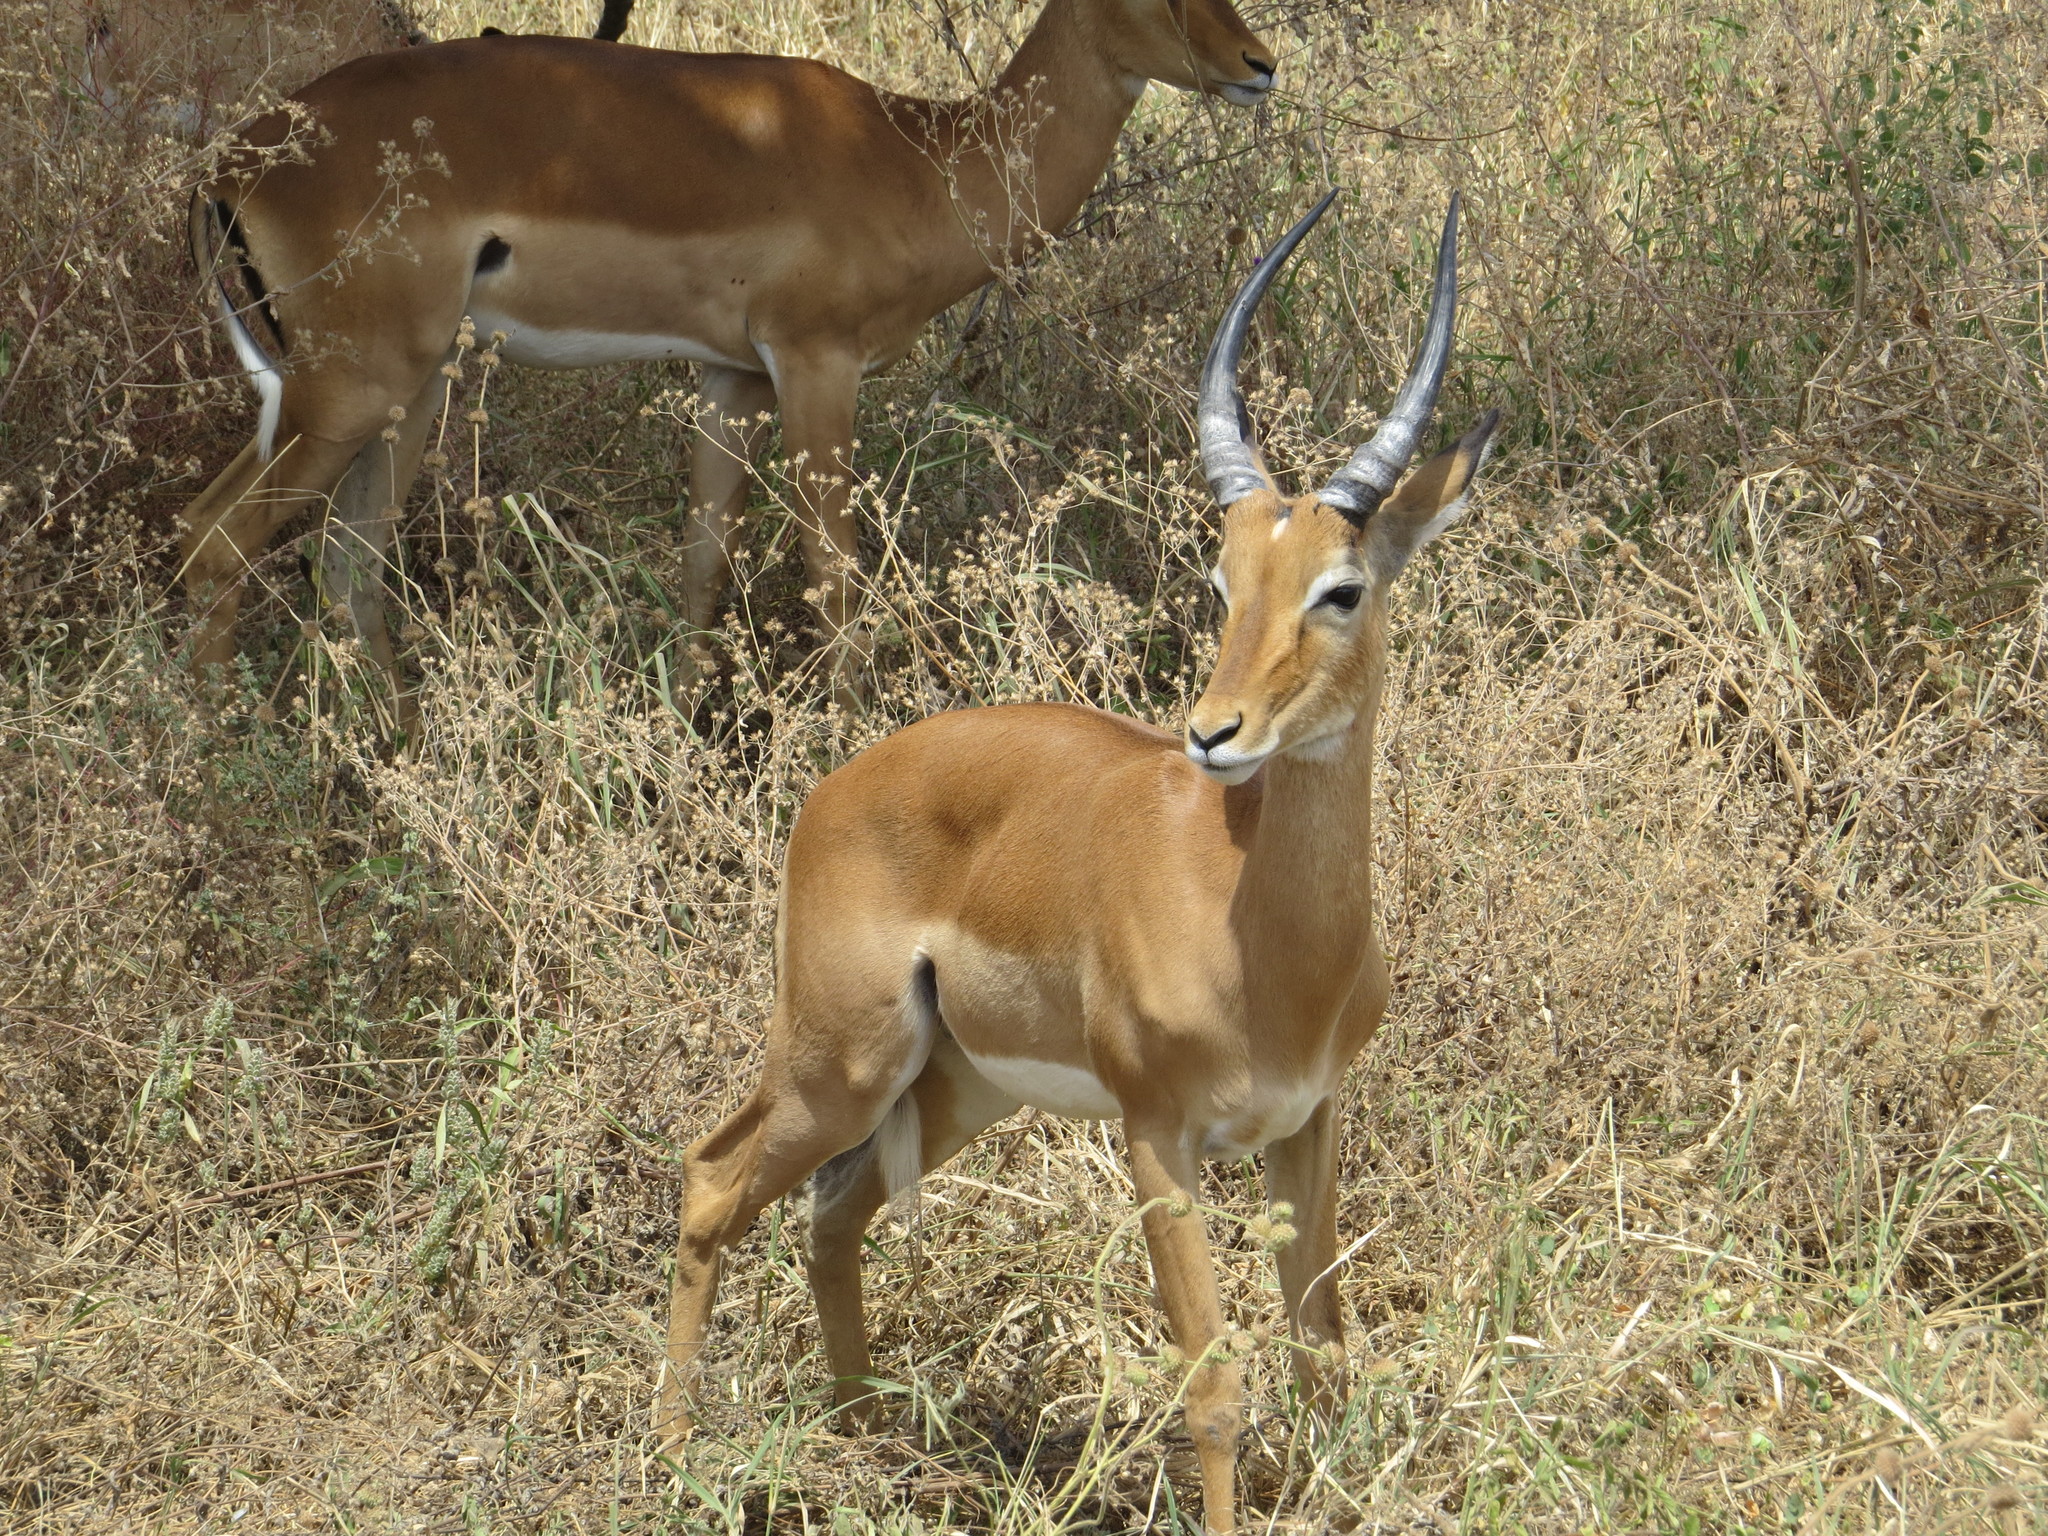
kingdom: Animalia
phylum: Chordata
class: Mammalia
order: Artiodactyla
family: Bovidae
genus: Aepyceros
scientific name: Aepyceros melampus
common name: Impala
